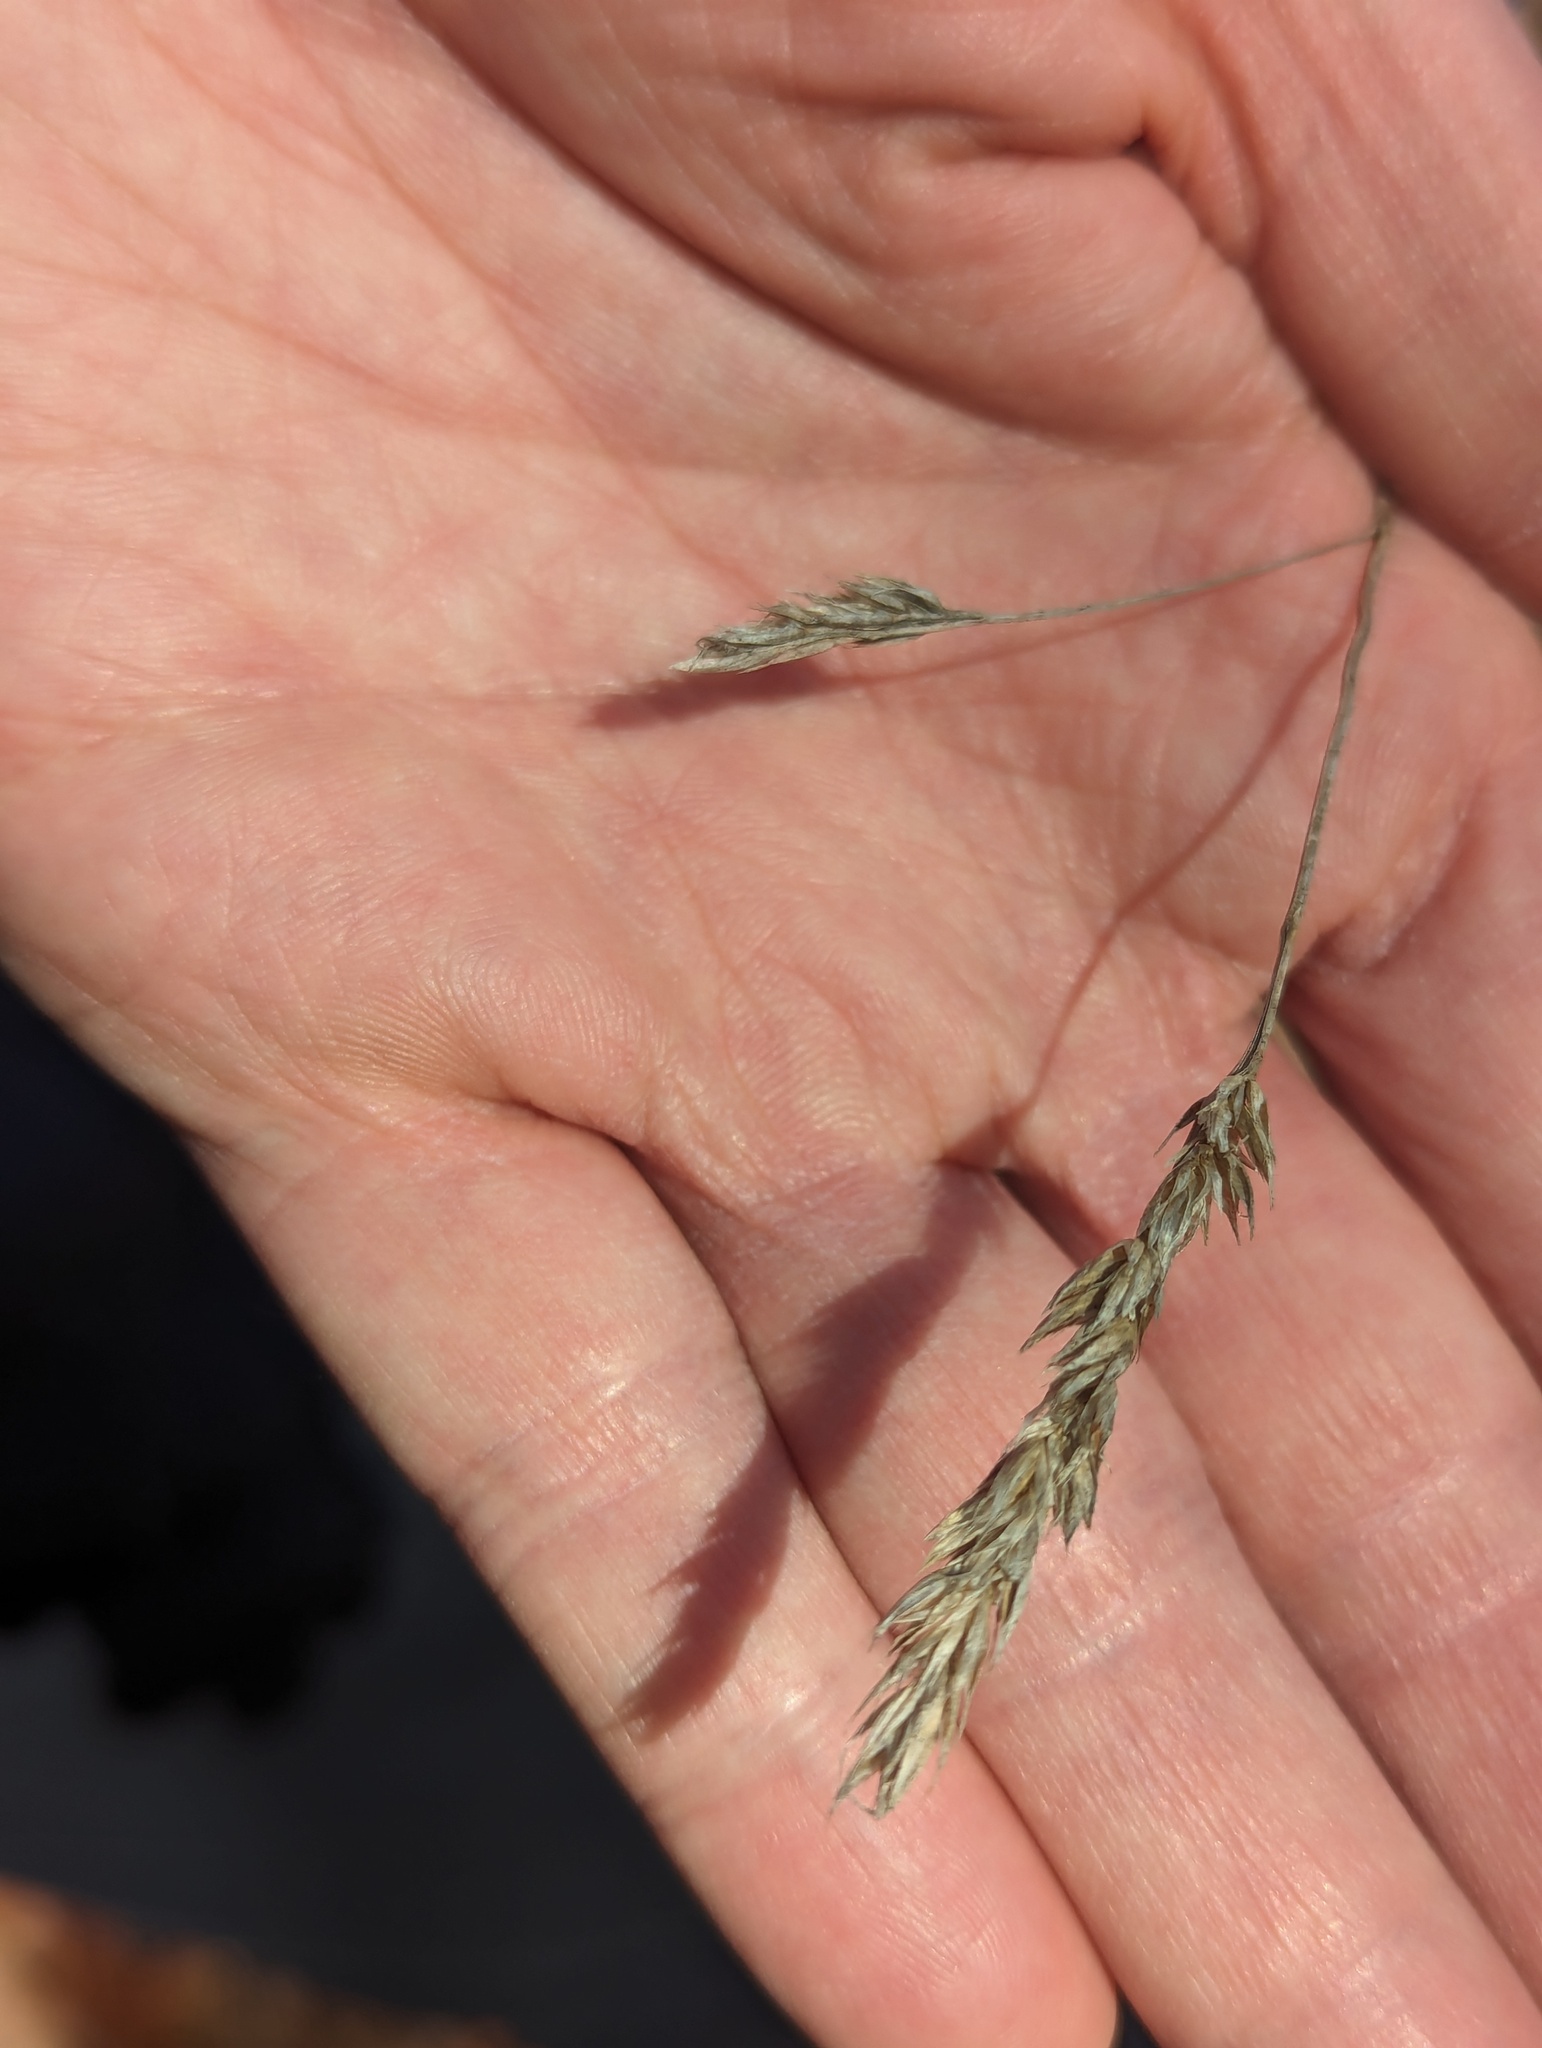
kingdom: Plantae
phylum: Tracheophyta
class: Liliopsida
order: Poales
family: Poaceae
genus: Dactylis
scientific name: Dactylis glomerata
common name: Orchardgrass
